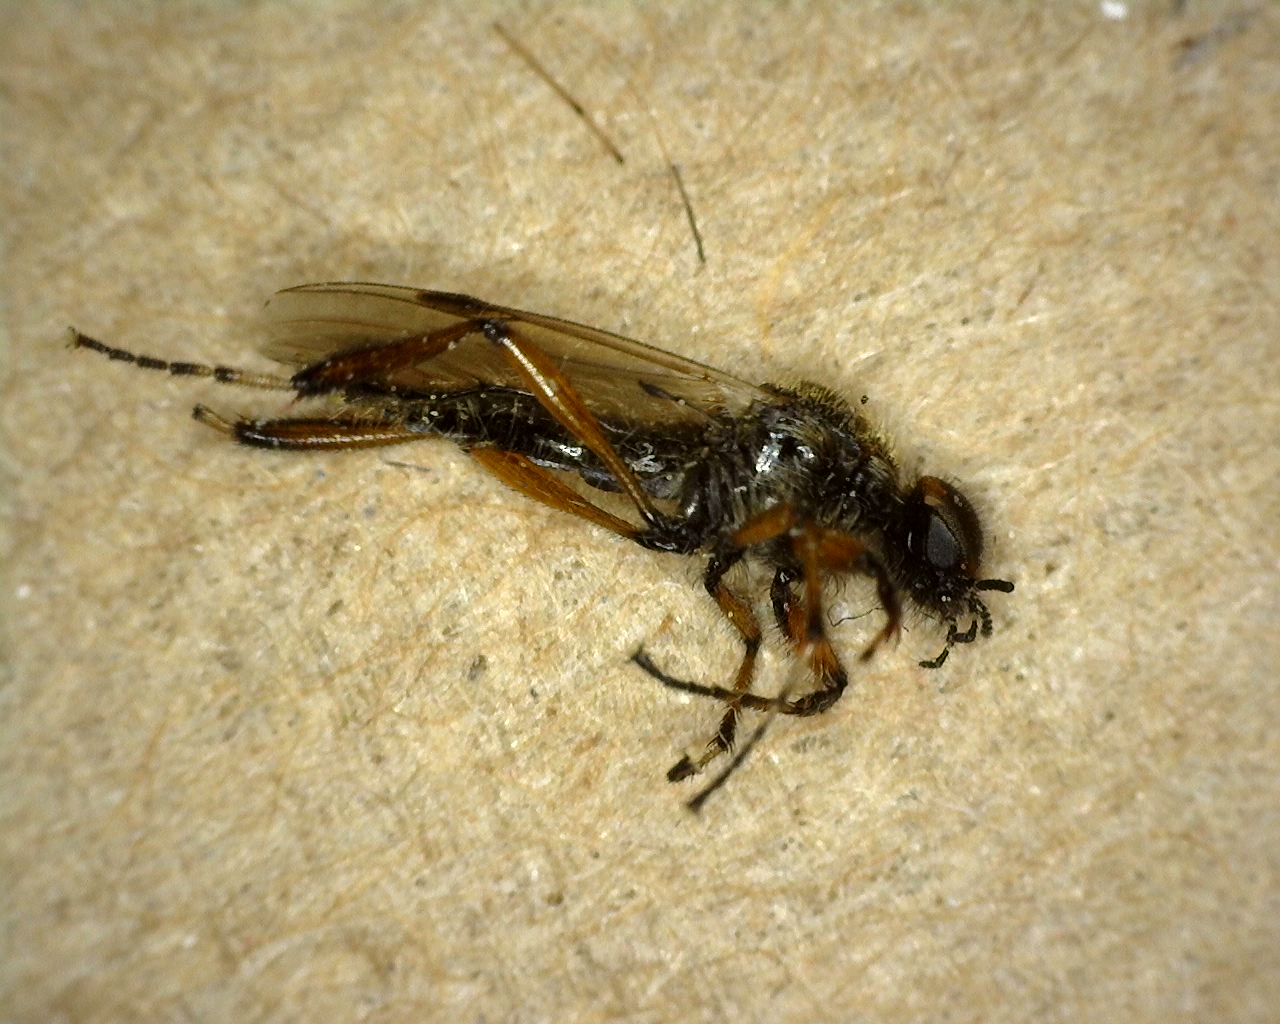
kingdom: Animalia
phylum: Arthropoda
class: Insecta
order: Diptera
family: Bibionidae
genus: Bibio
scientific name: Bibio articulatus
